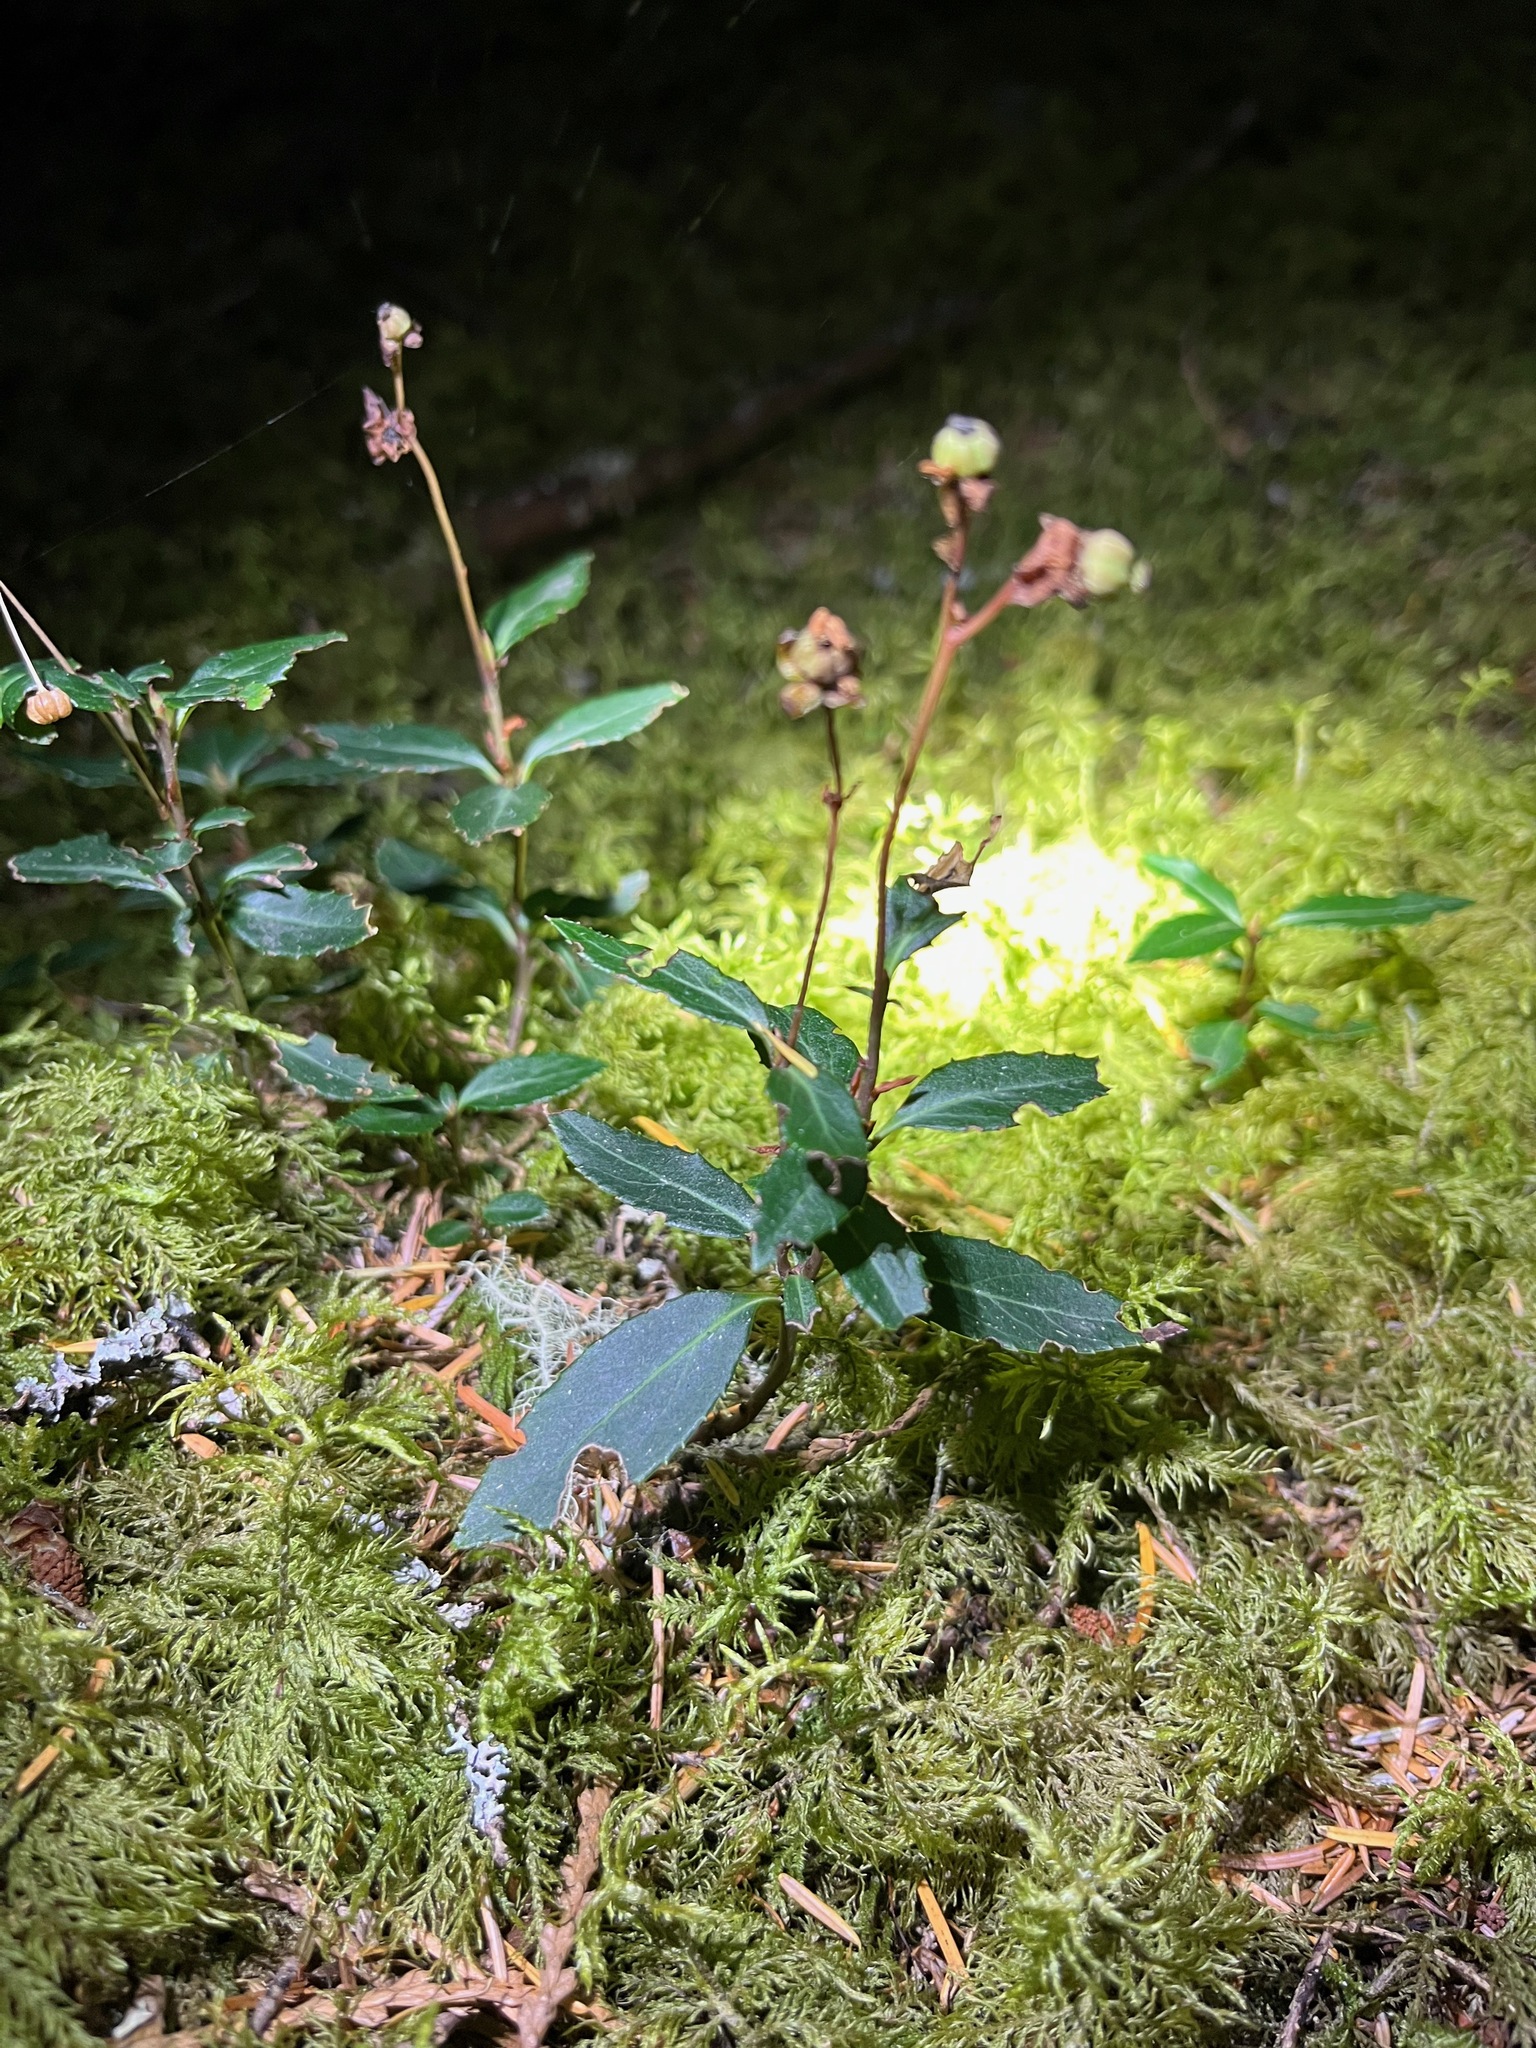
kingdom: Plantae
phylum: Tracheophyta
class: Magnoliopsida
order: Ericales
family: Ericaceae
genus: Chimaphila
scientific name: Chimaphila menziesii
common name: Menzies' pipsissewa
